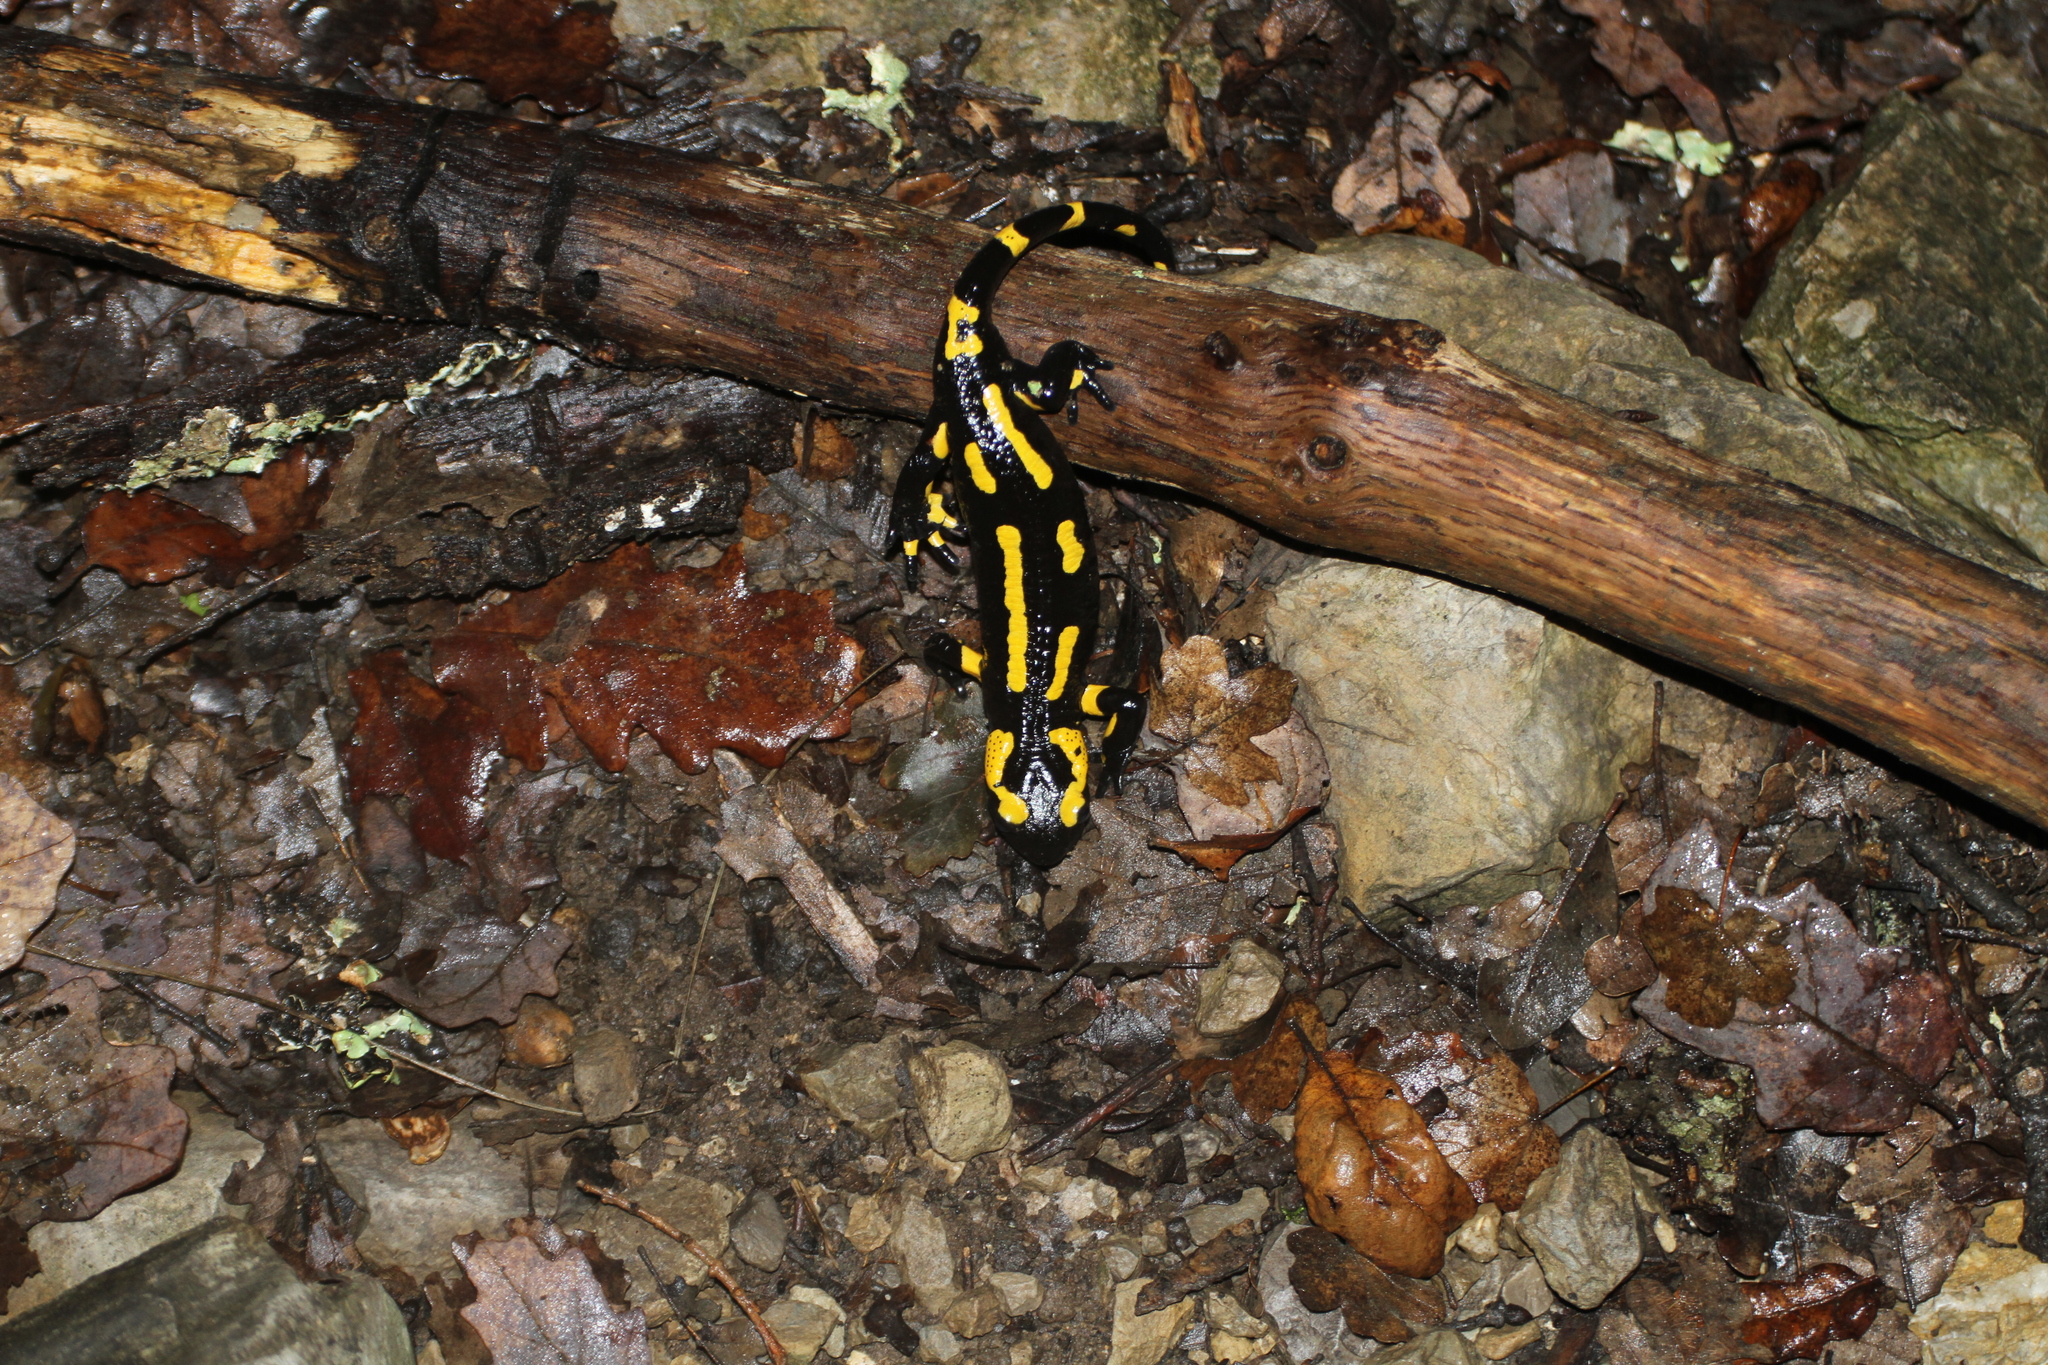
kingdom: Animalia
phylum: Chordata
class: Amphibia
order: Caudata
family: Salamandridae
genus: Salamandra
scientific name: Salamandra salamandra
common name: Fire salamander
